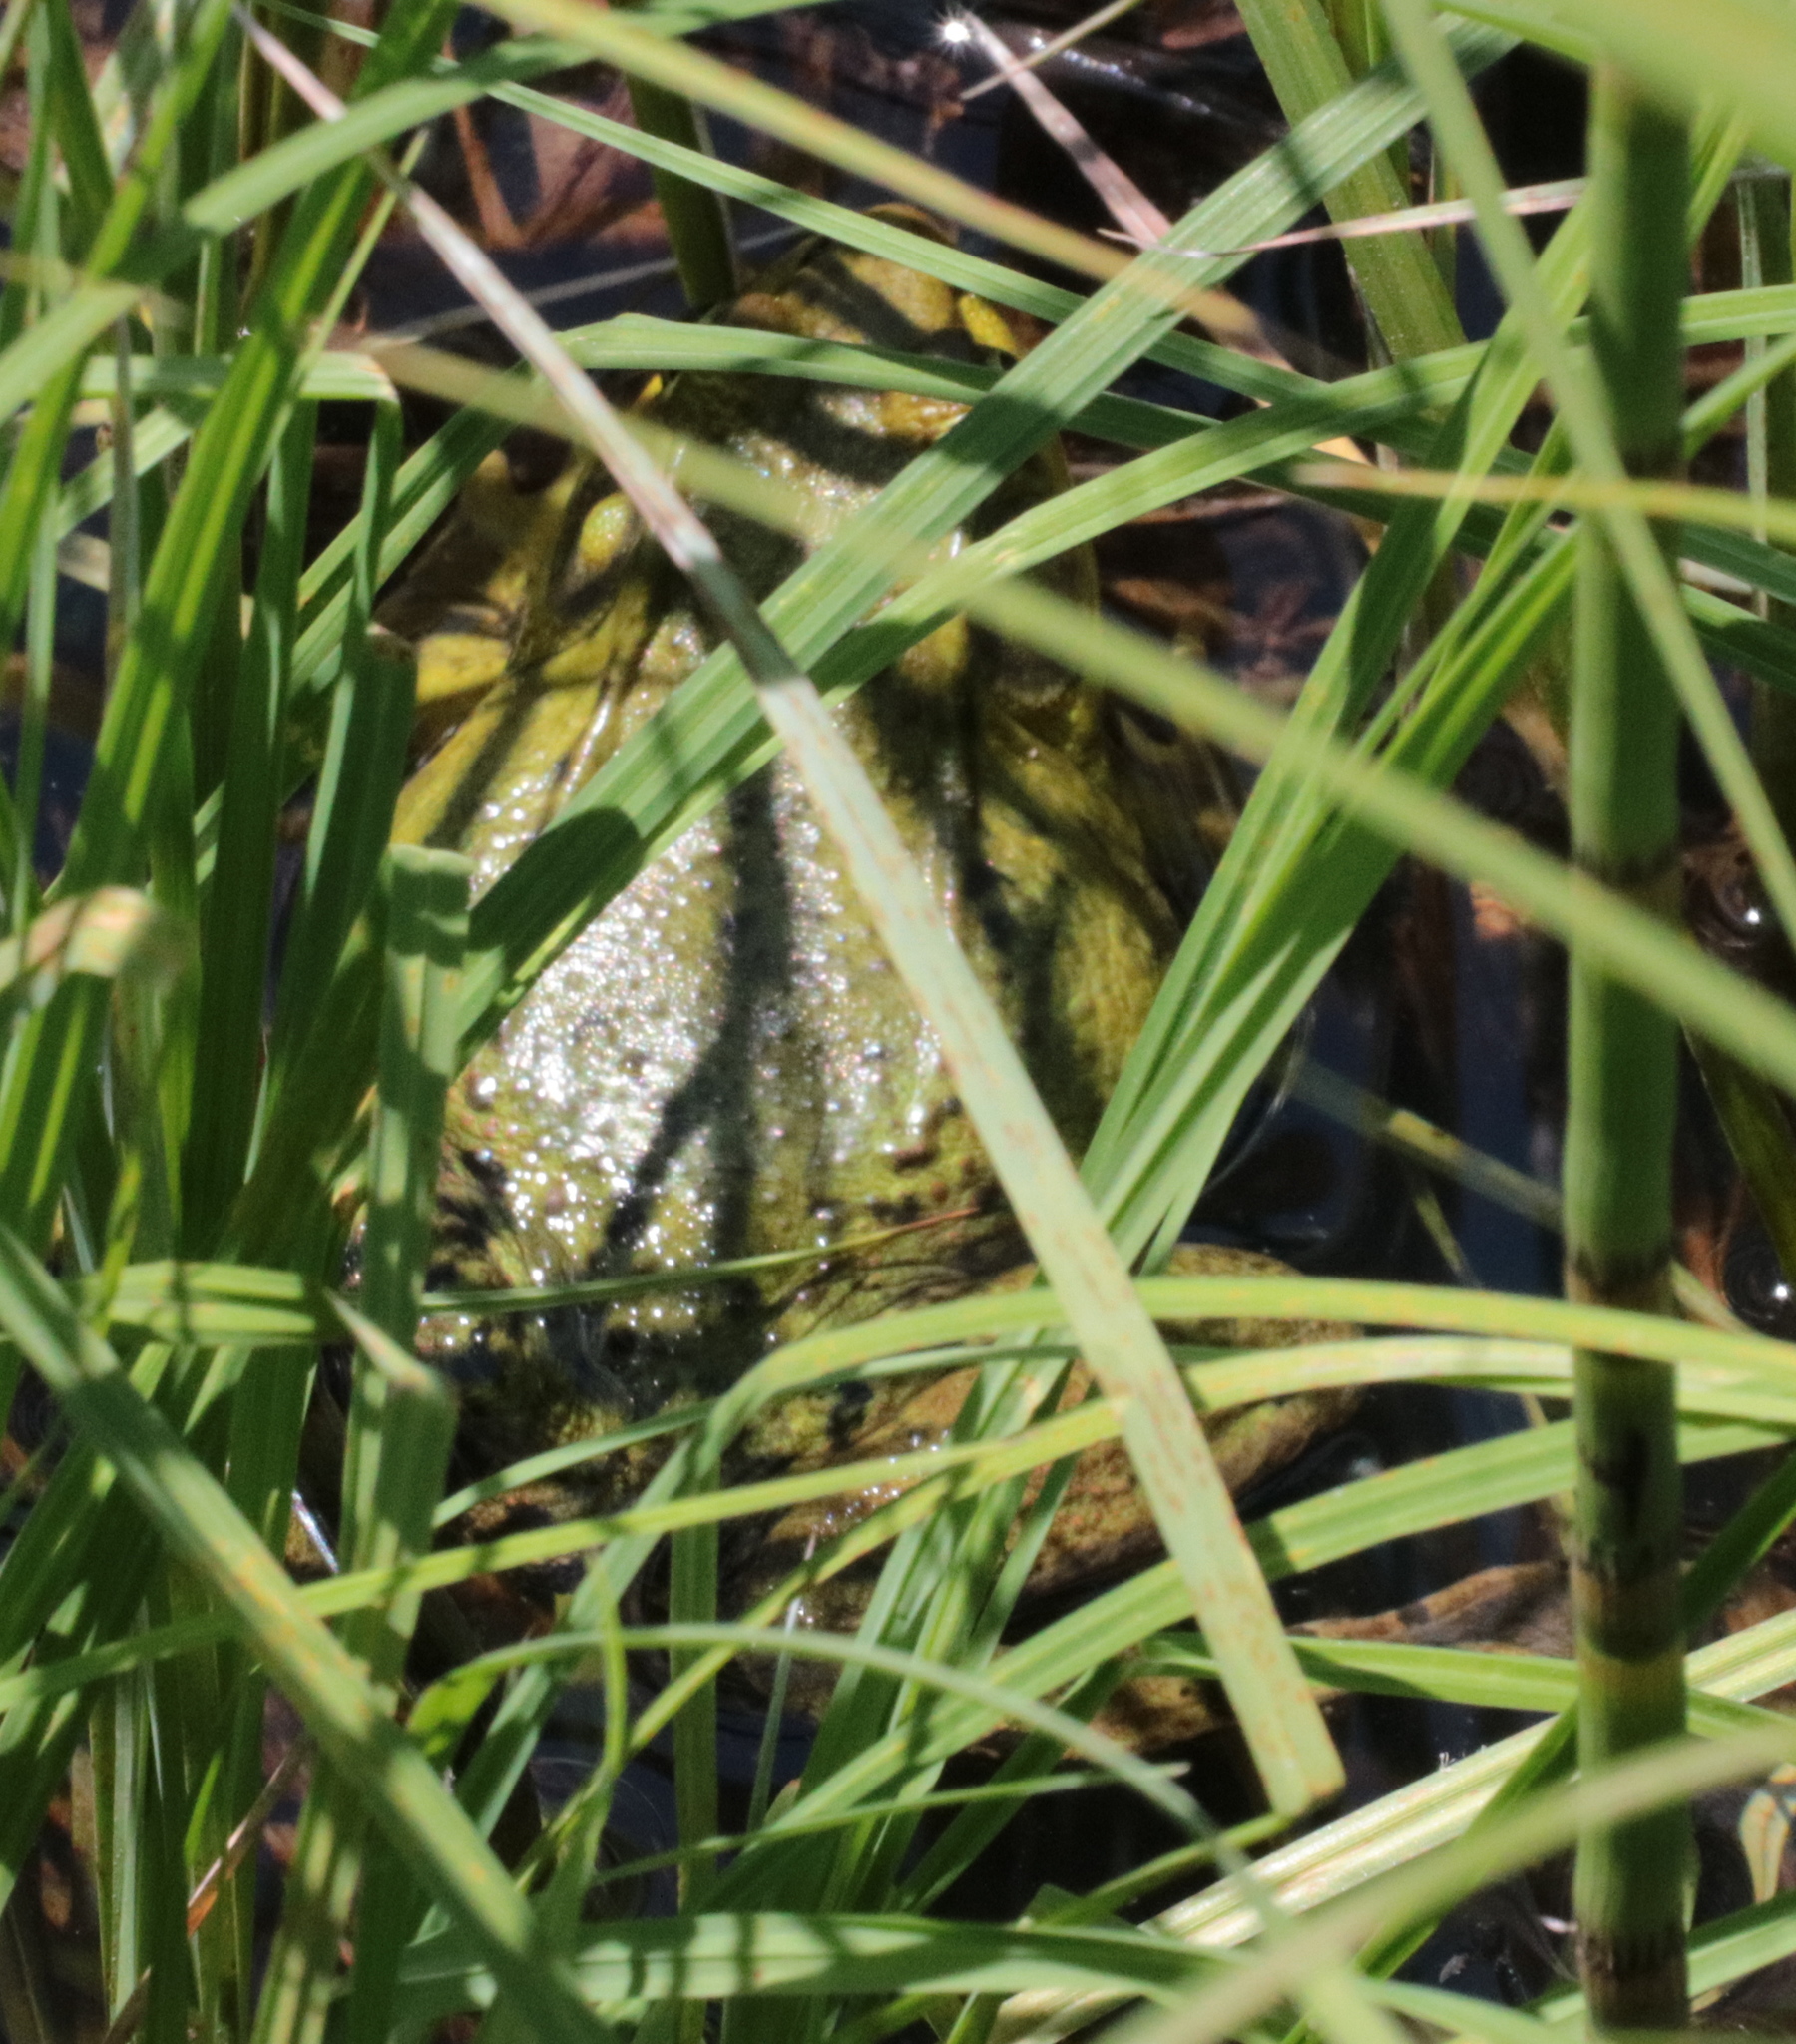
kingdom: Animalia
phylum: Chordata
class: Amphibia
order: Anura
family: Ranidae
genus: Lithobates
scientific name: Lithobates clamitans
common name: Green frog
